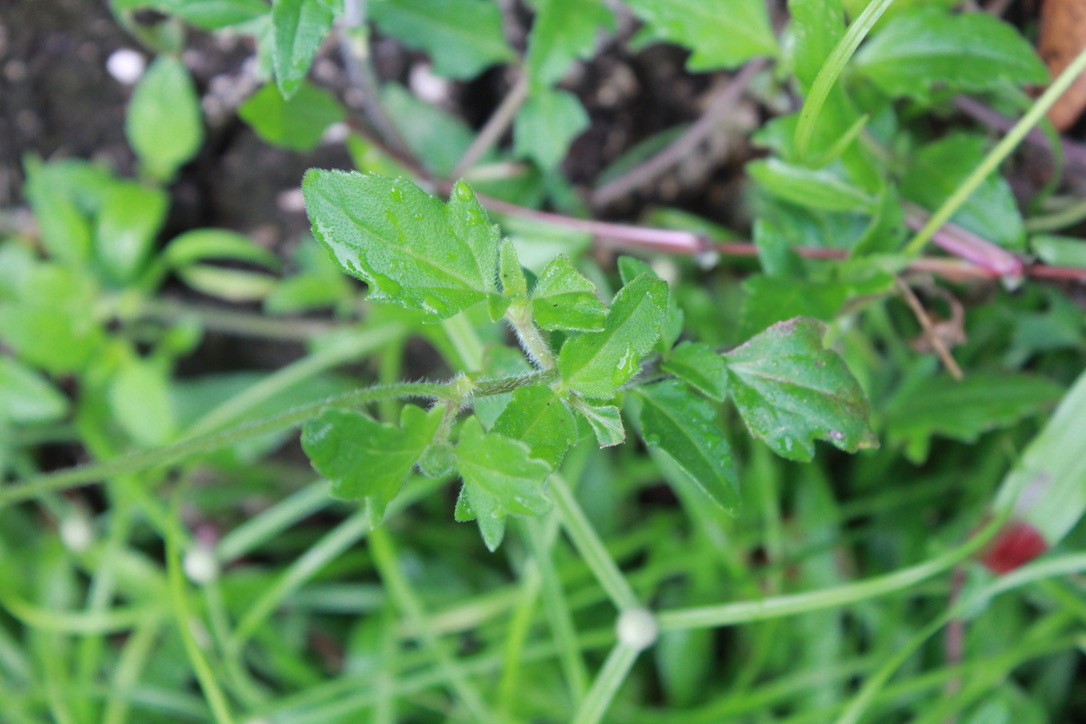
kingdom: Plantae
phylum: Tracheophyta
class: Magnoliopsida
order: Asterales
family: Asteraceae
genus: Tridax
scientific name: Tridax procumbens
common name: Coatbuttons
